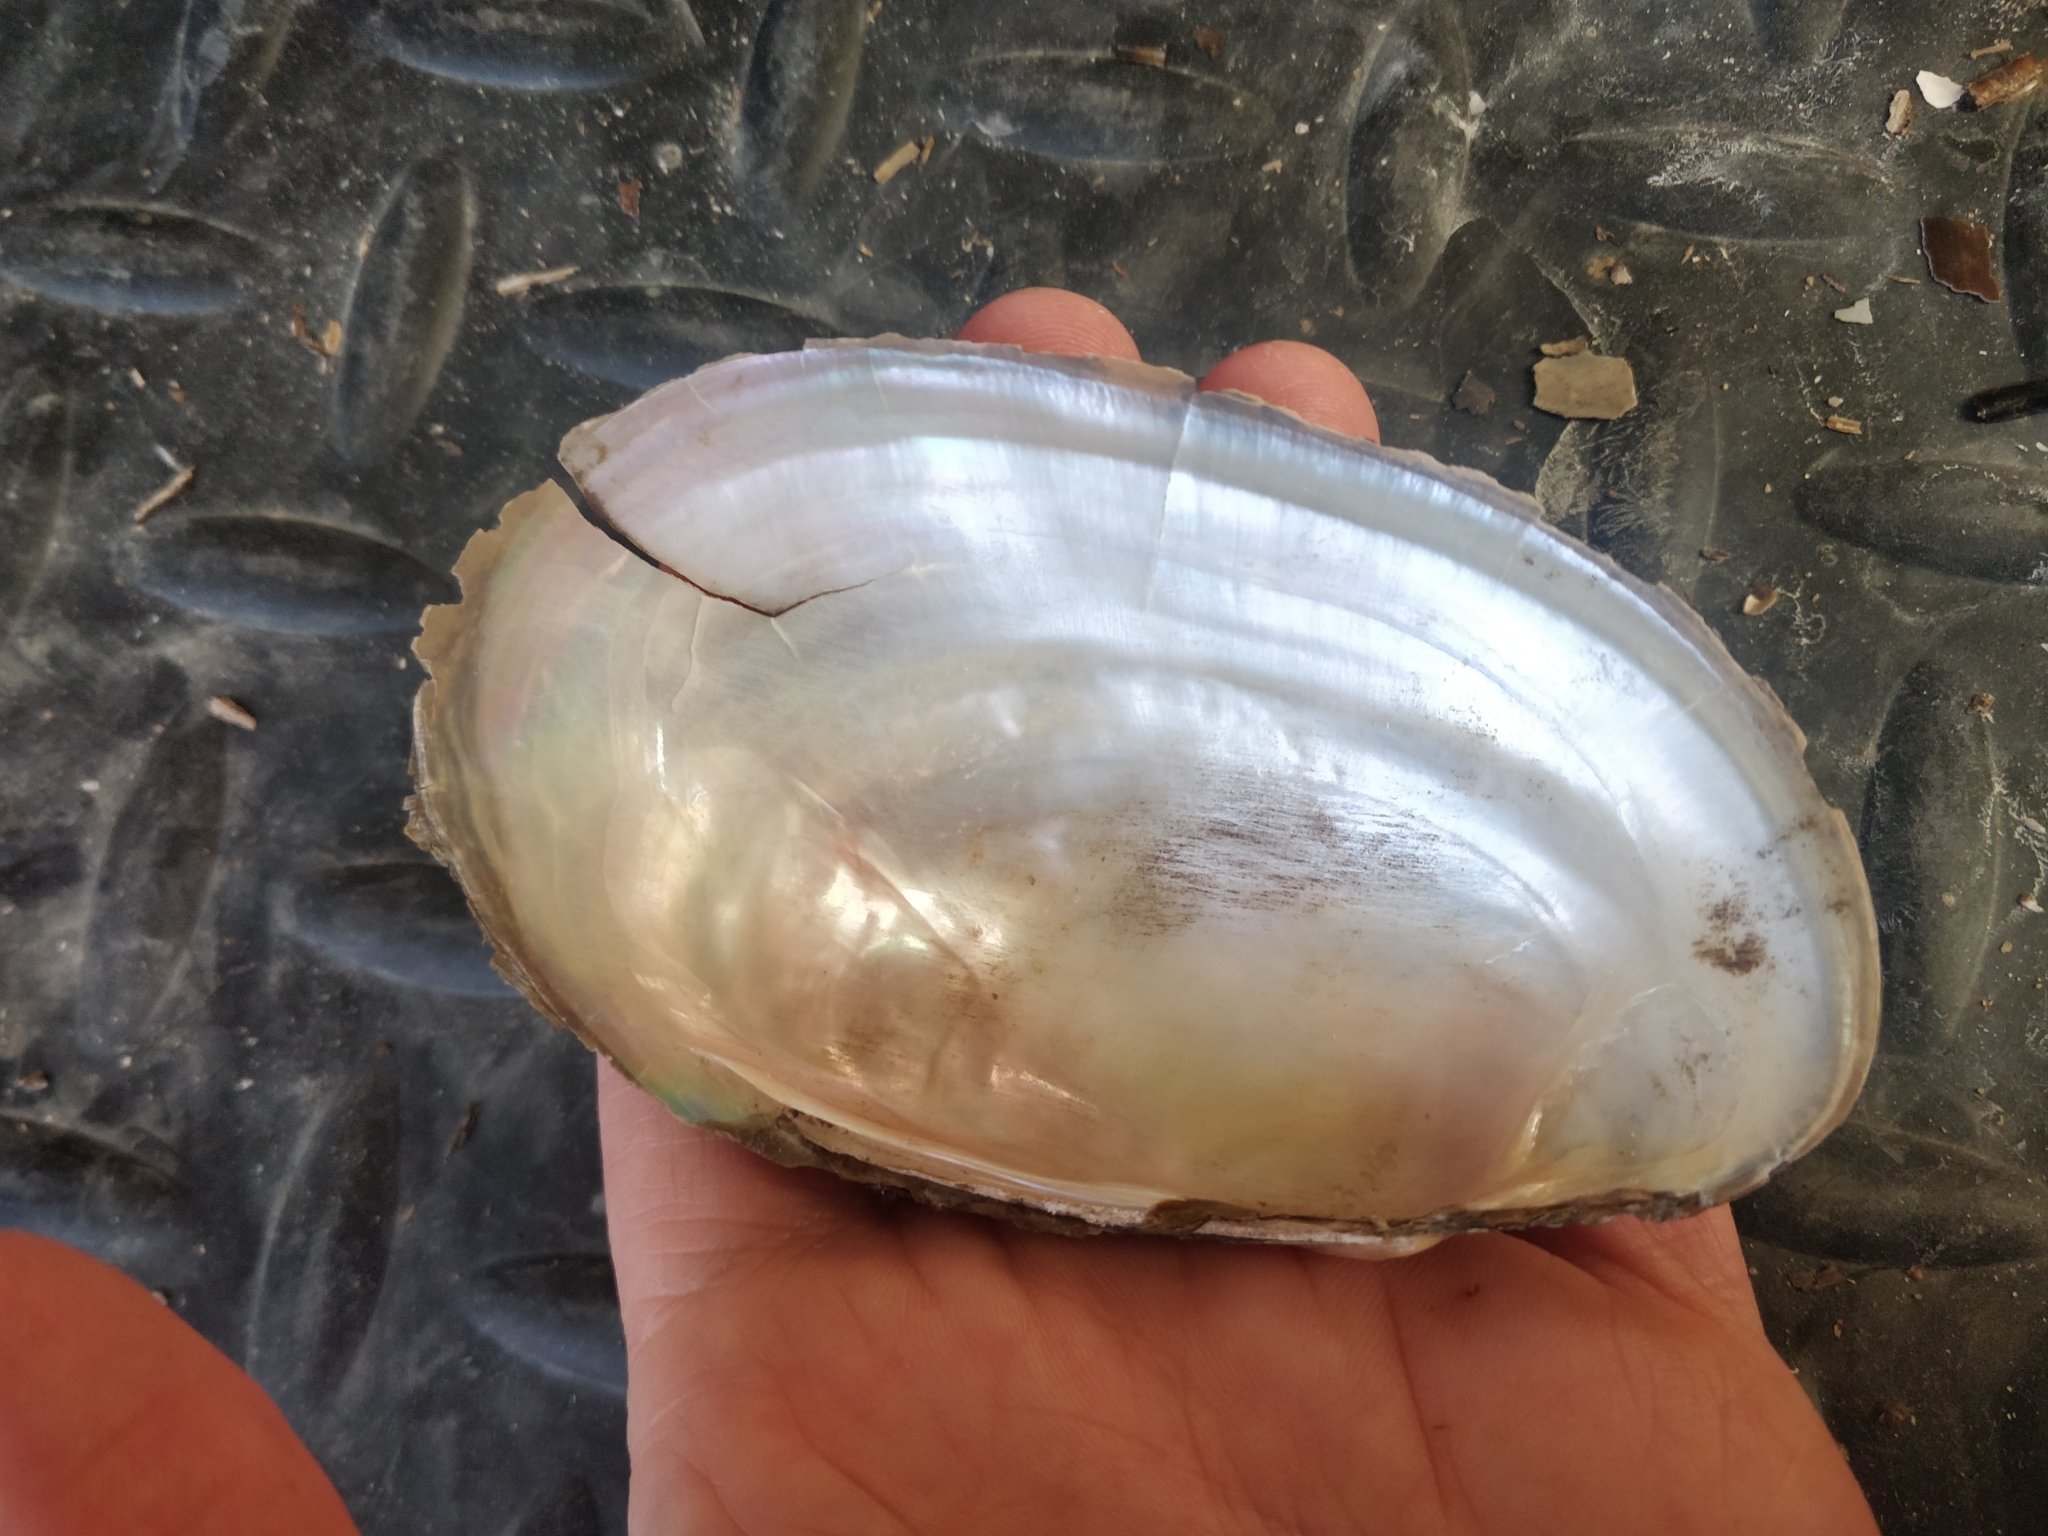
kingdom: Animalia
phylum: Mollusca
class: Bivalvia
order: Unionida
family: Unionidae
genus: Potamilus
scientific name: Potamilus fragilis
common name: Fragile papershell
